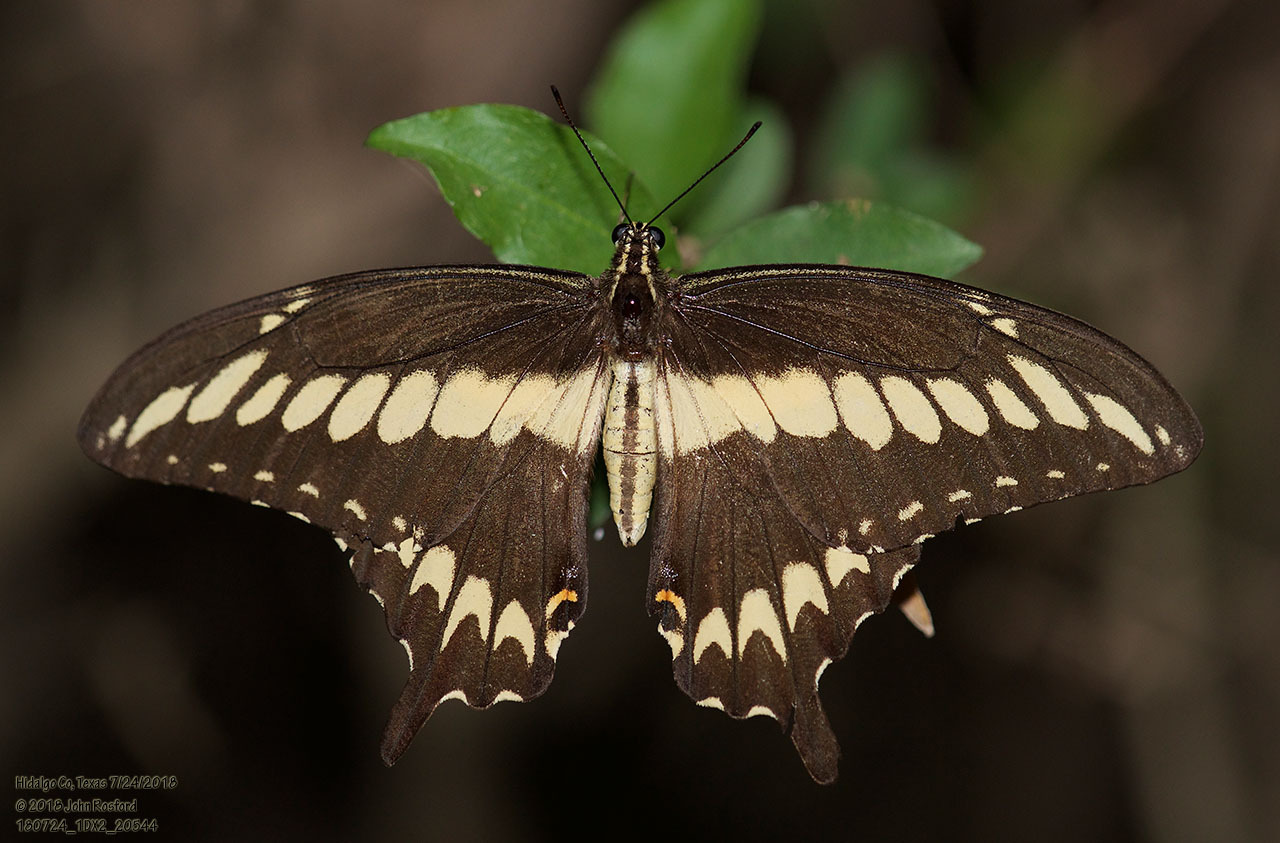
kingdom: Animalia
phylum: Arthropoda
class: Insecta
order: Lepidoptera
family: Papilionidae
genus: Papilio
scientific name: Papilio ornythion
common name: Ornythion swallowtail
